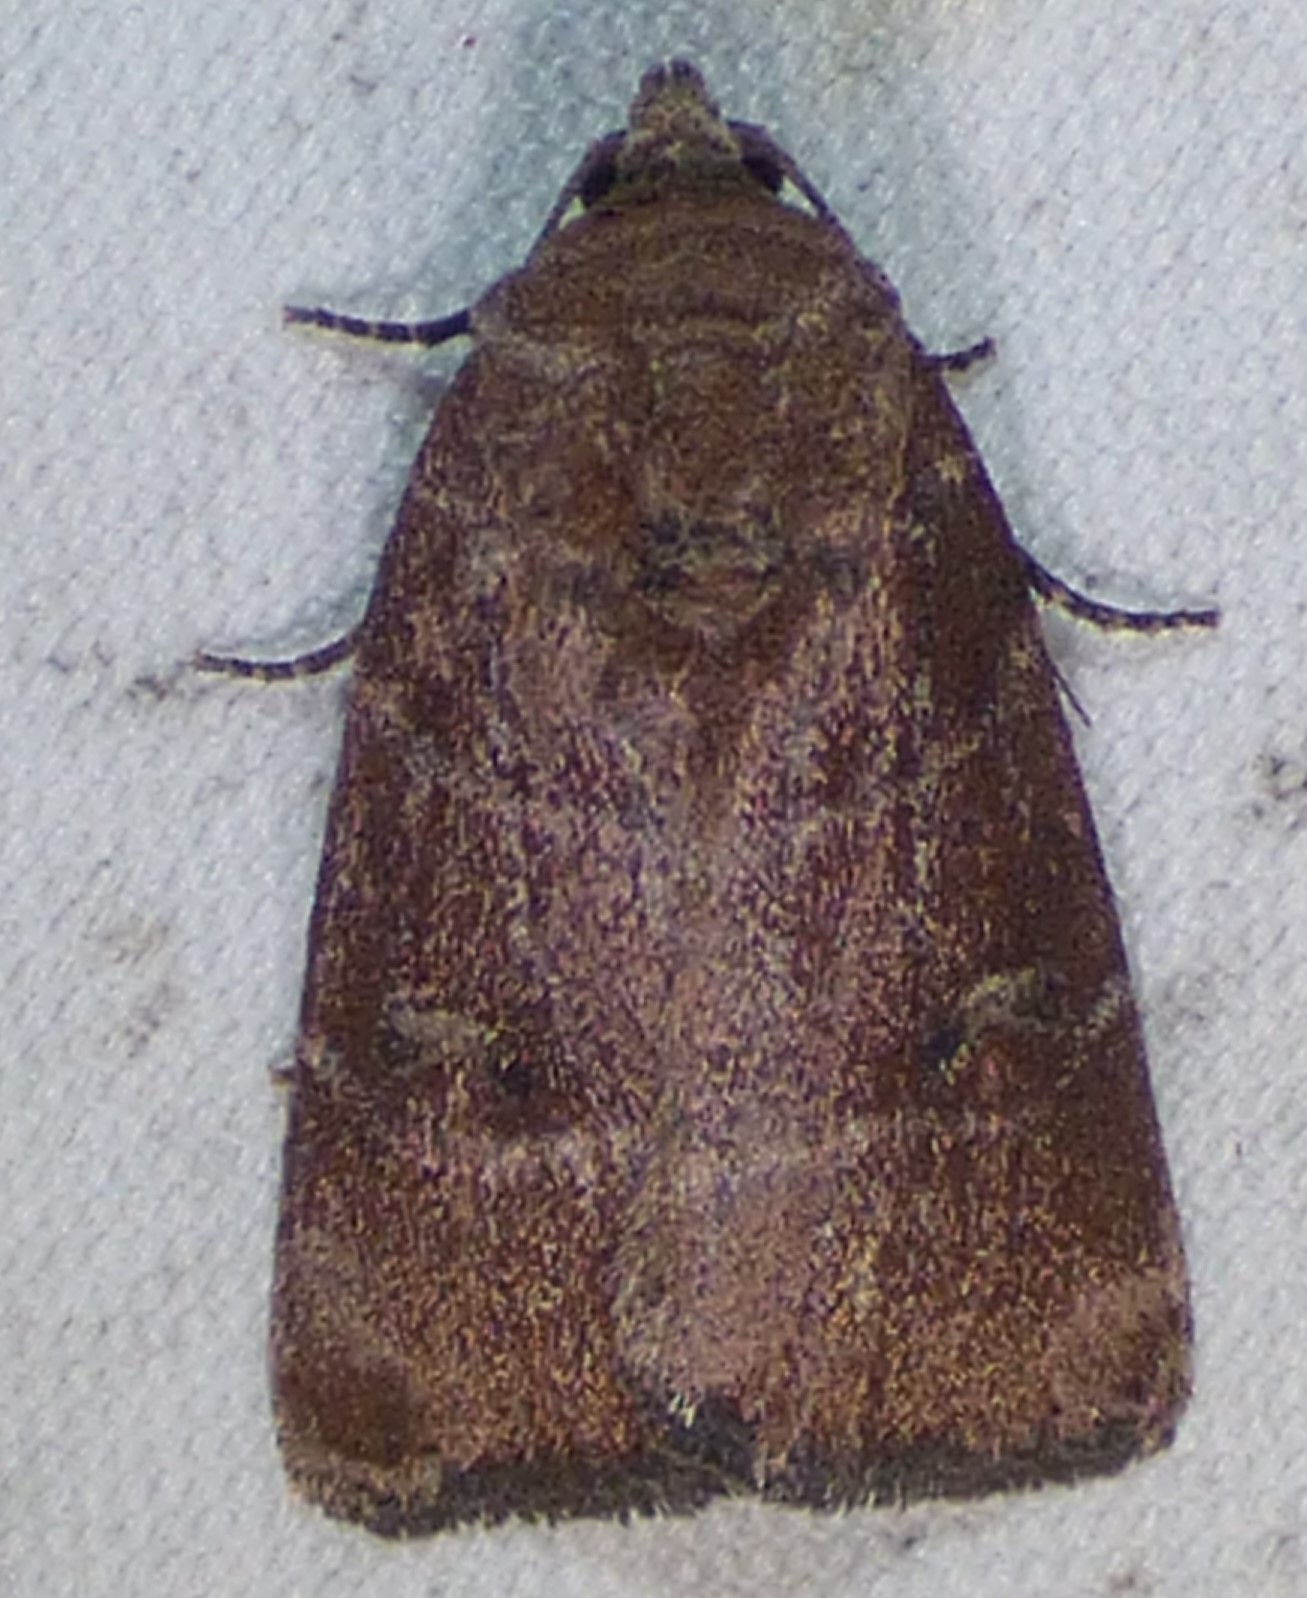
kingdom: Animalia
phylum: Arthropoda
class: Insecta
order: Lepidoptera
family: Noctuidae
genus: Elaphria
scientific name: Elaphria grata
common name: Grateful midget moth
